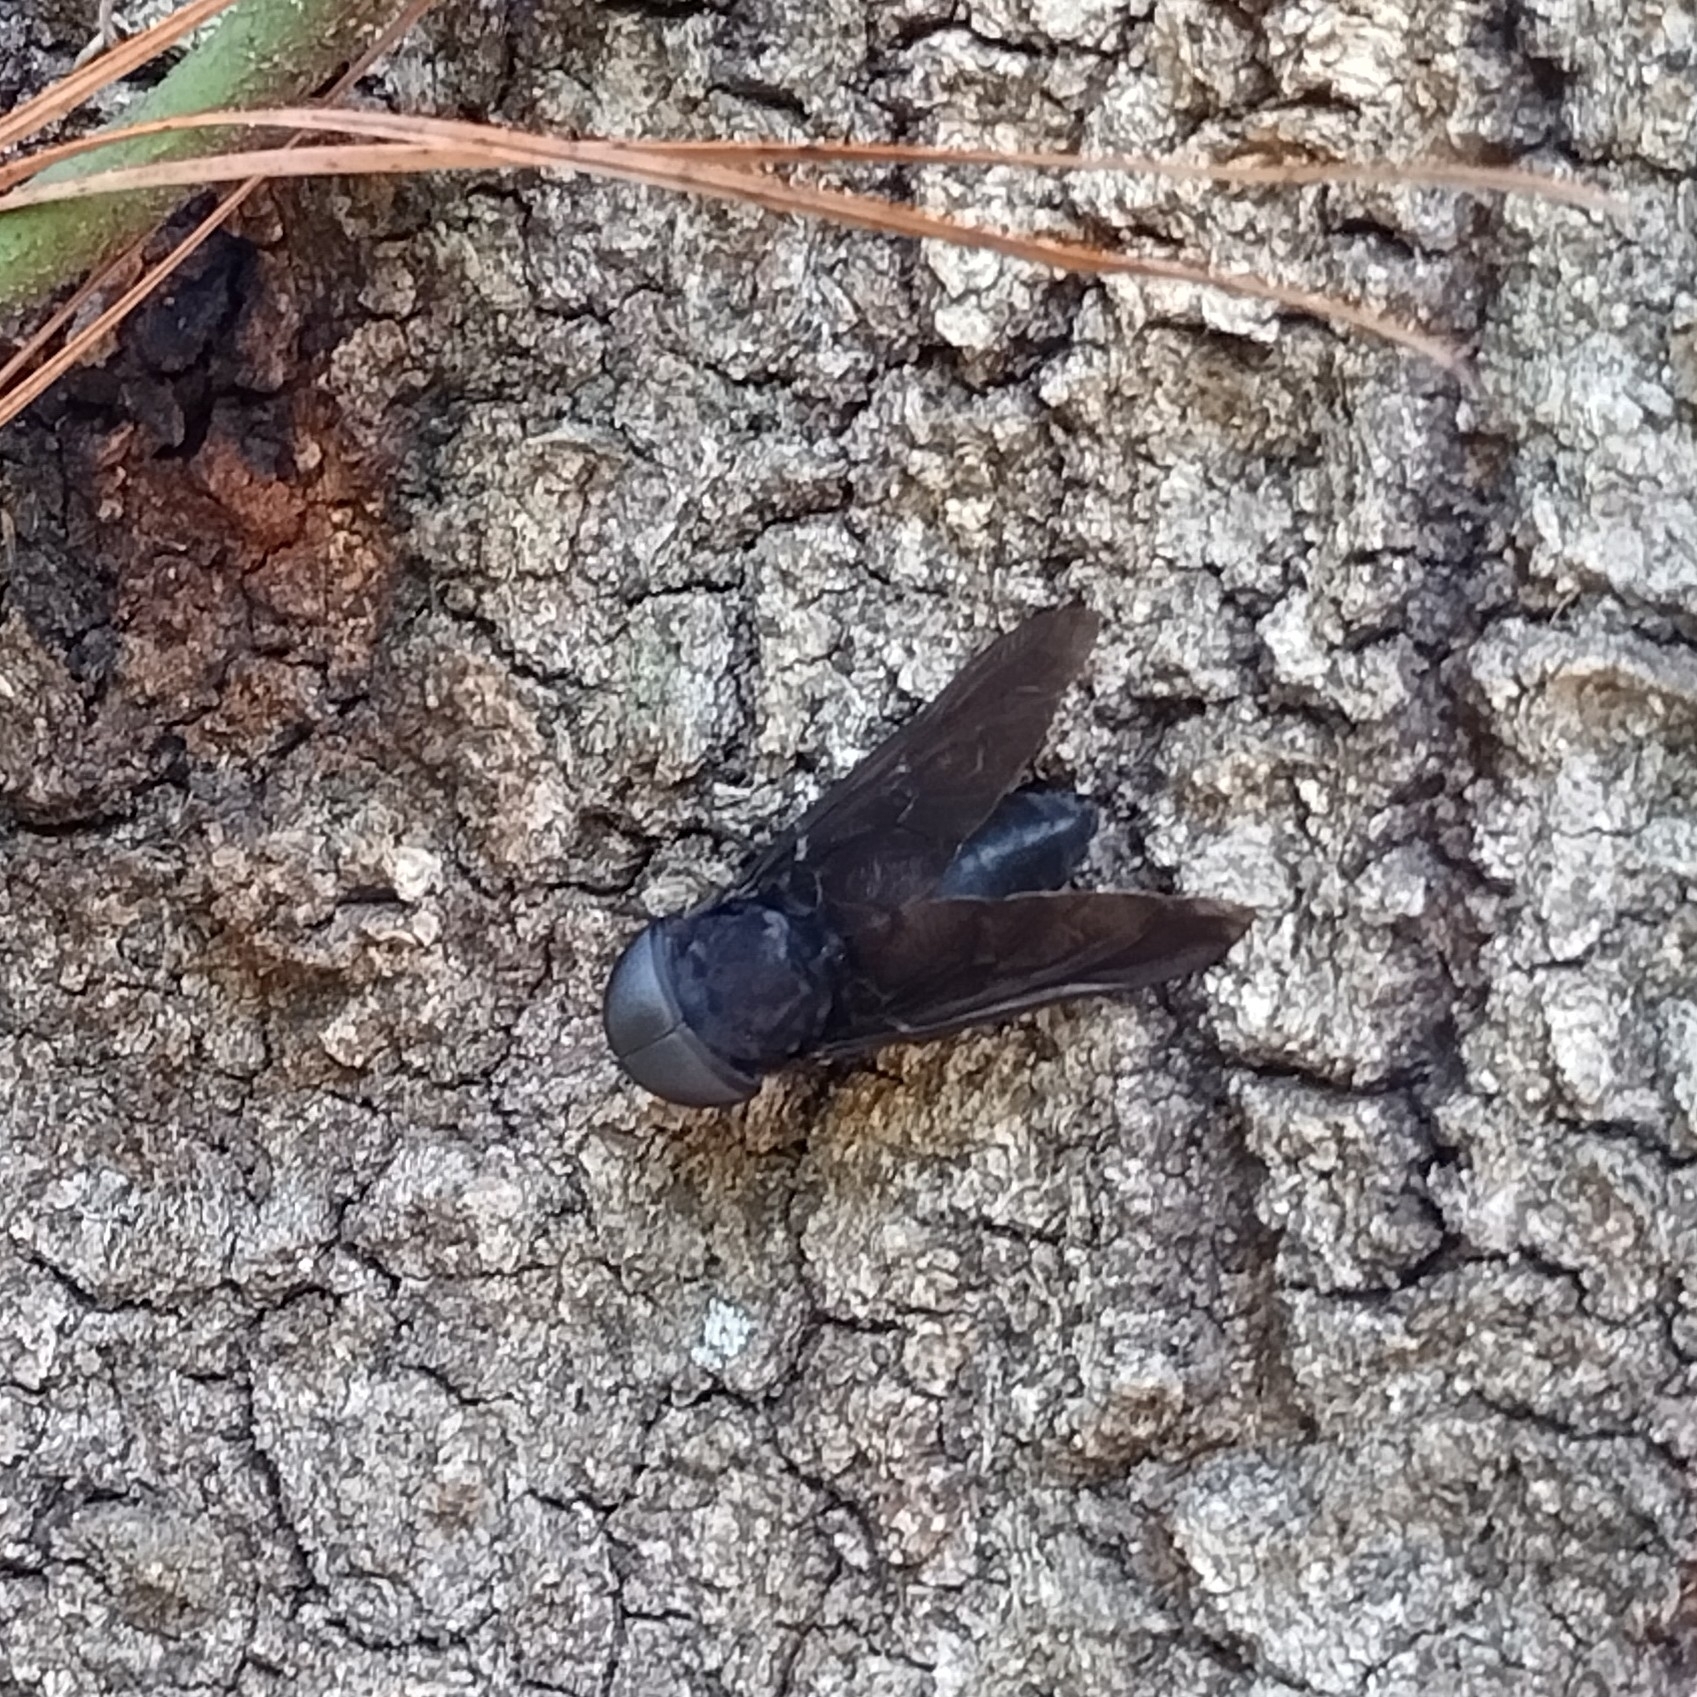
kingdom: Animalia
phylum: Arthropoda
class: Insecta
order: Diptera
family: Tabanidae
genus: Tabanus
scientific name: Tabanus atratus
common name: Black horse fly
